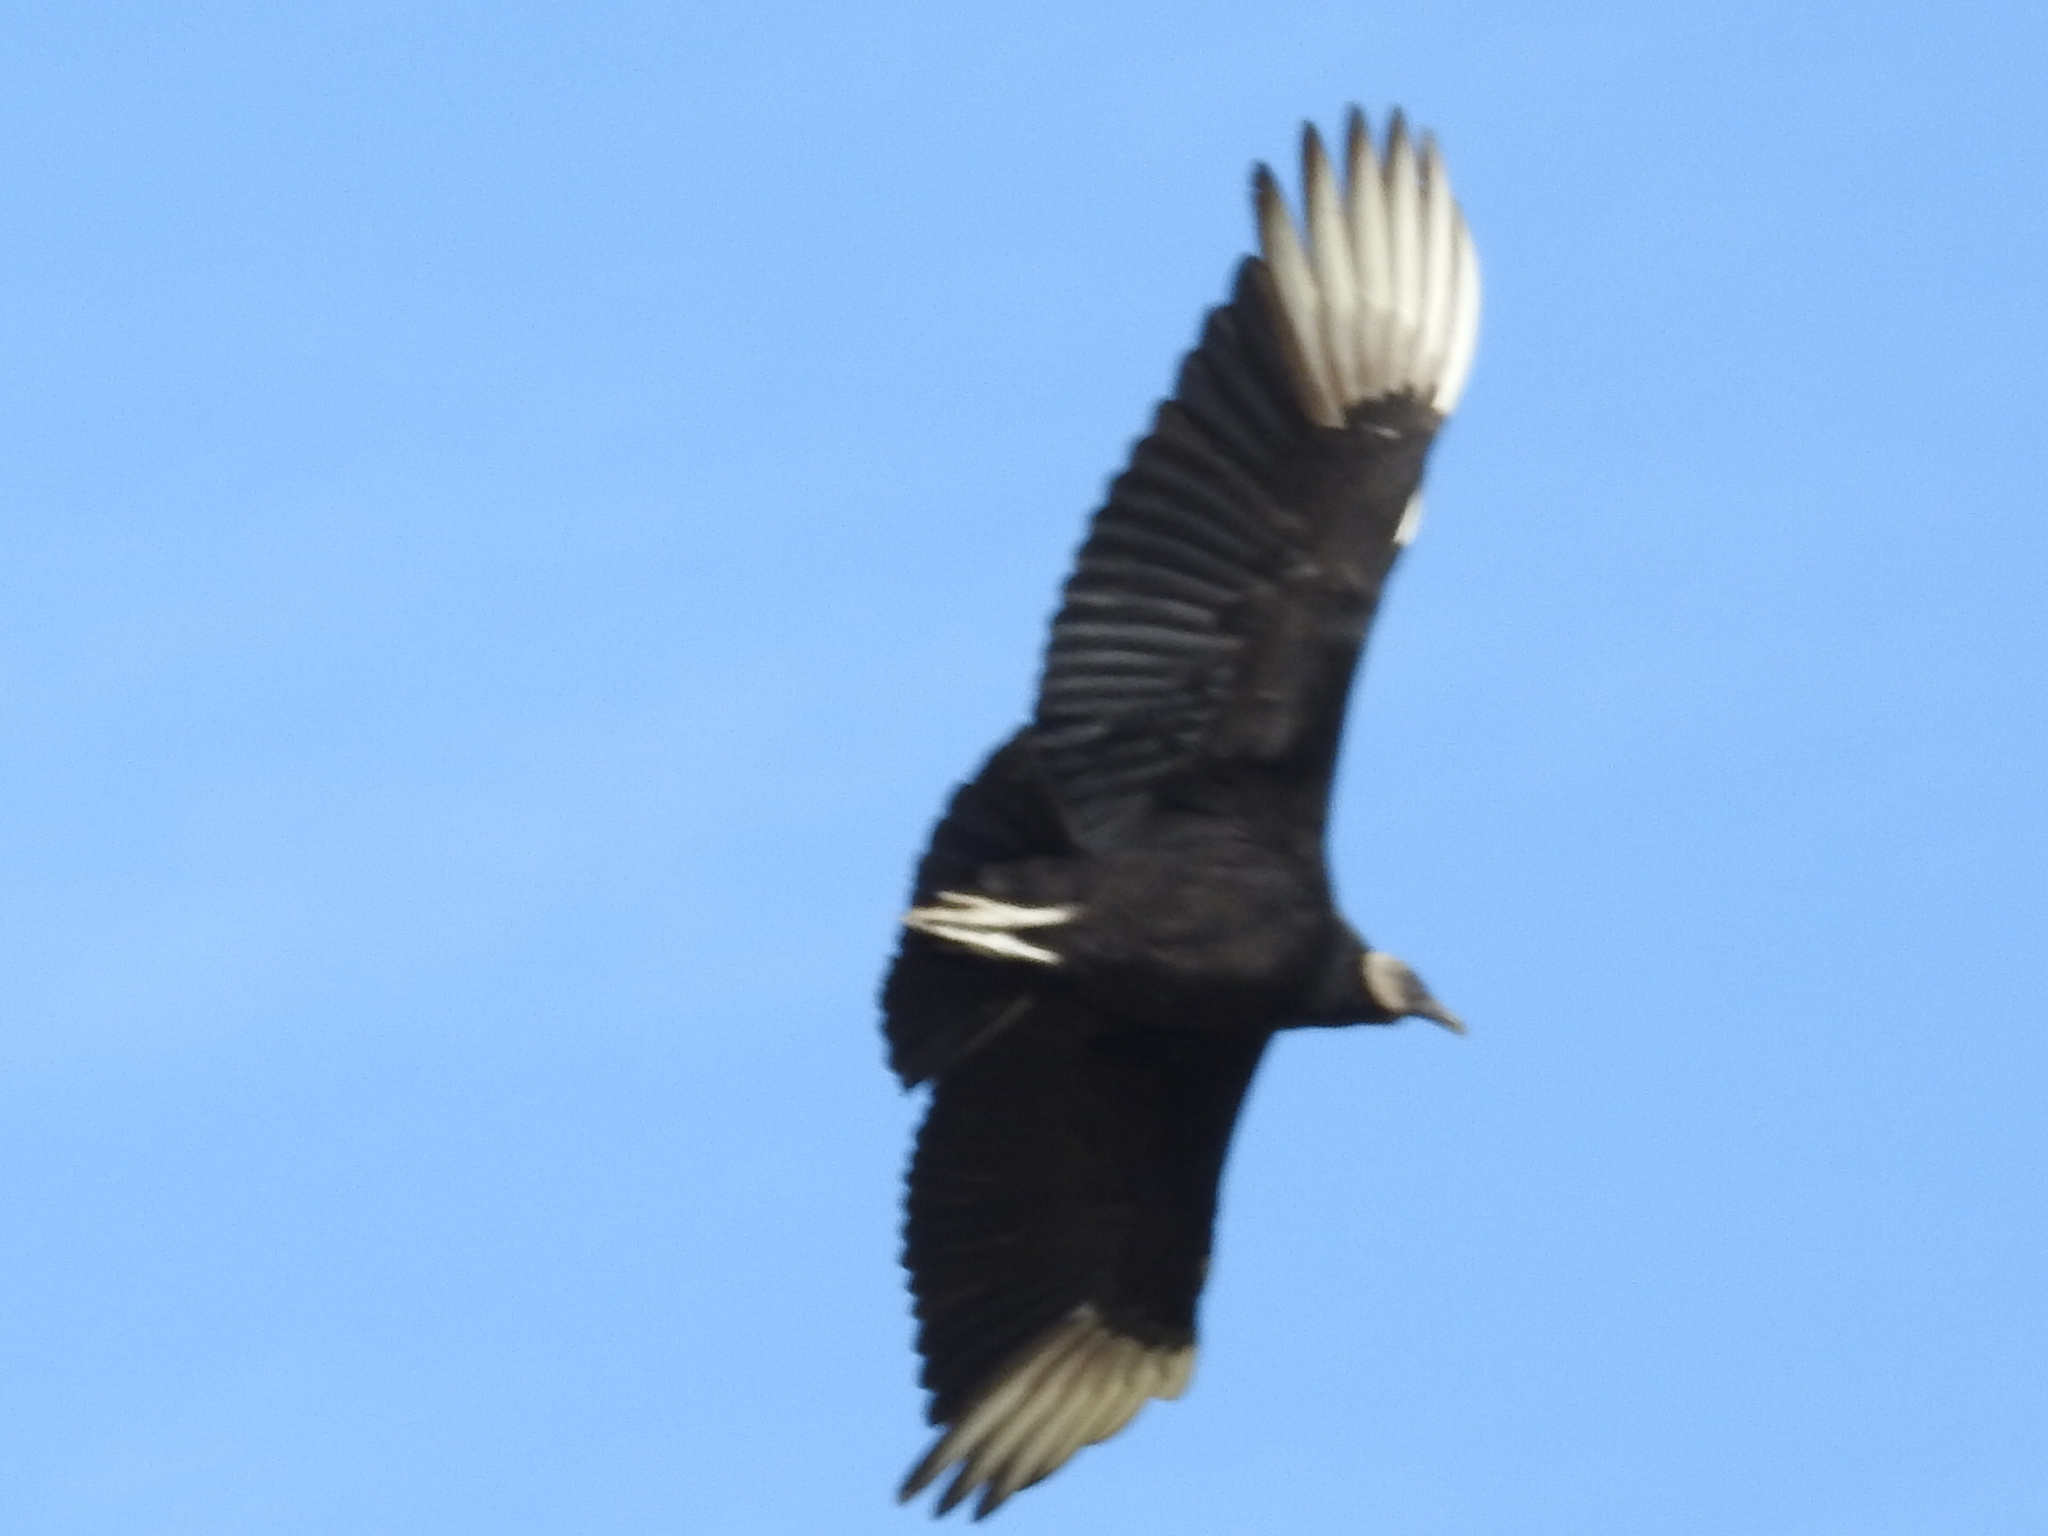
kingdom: Animalia
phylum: Chordata
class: Aves
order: Accipitriformes
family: Cathartidae
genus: Coragyps
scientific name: Coragyps atratus
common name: Black vulture
